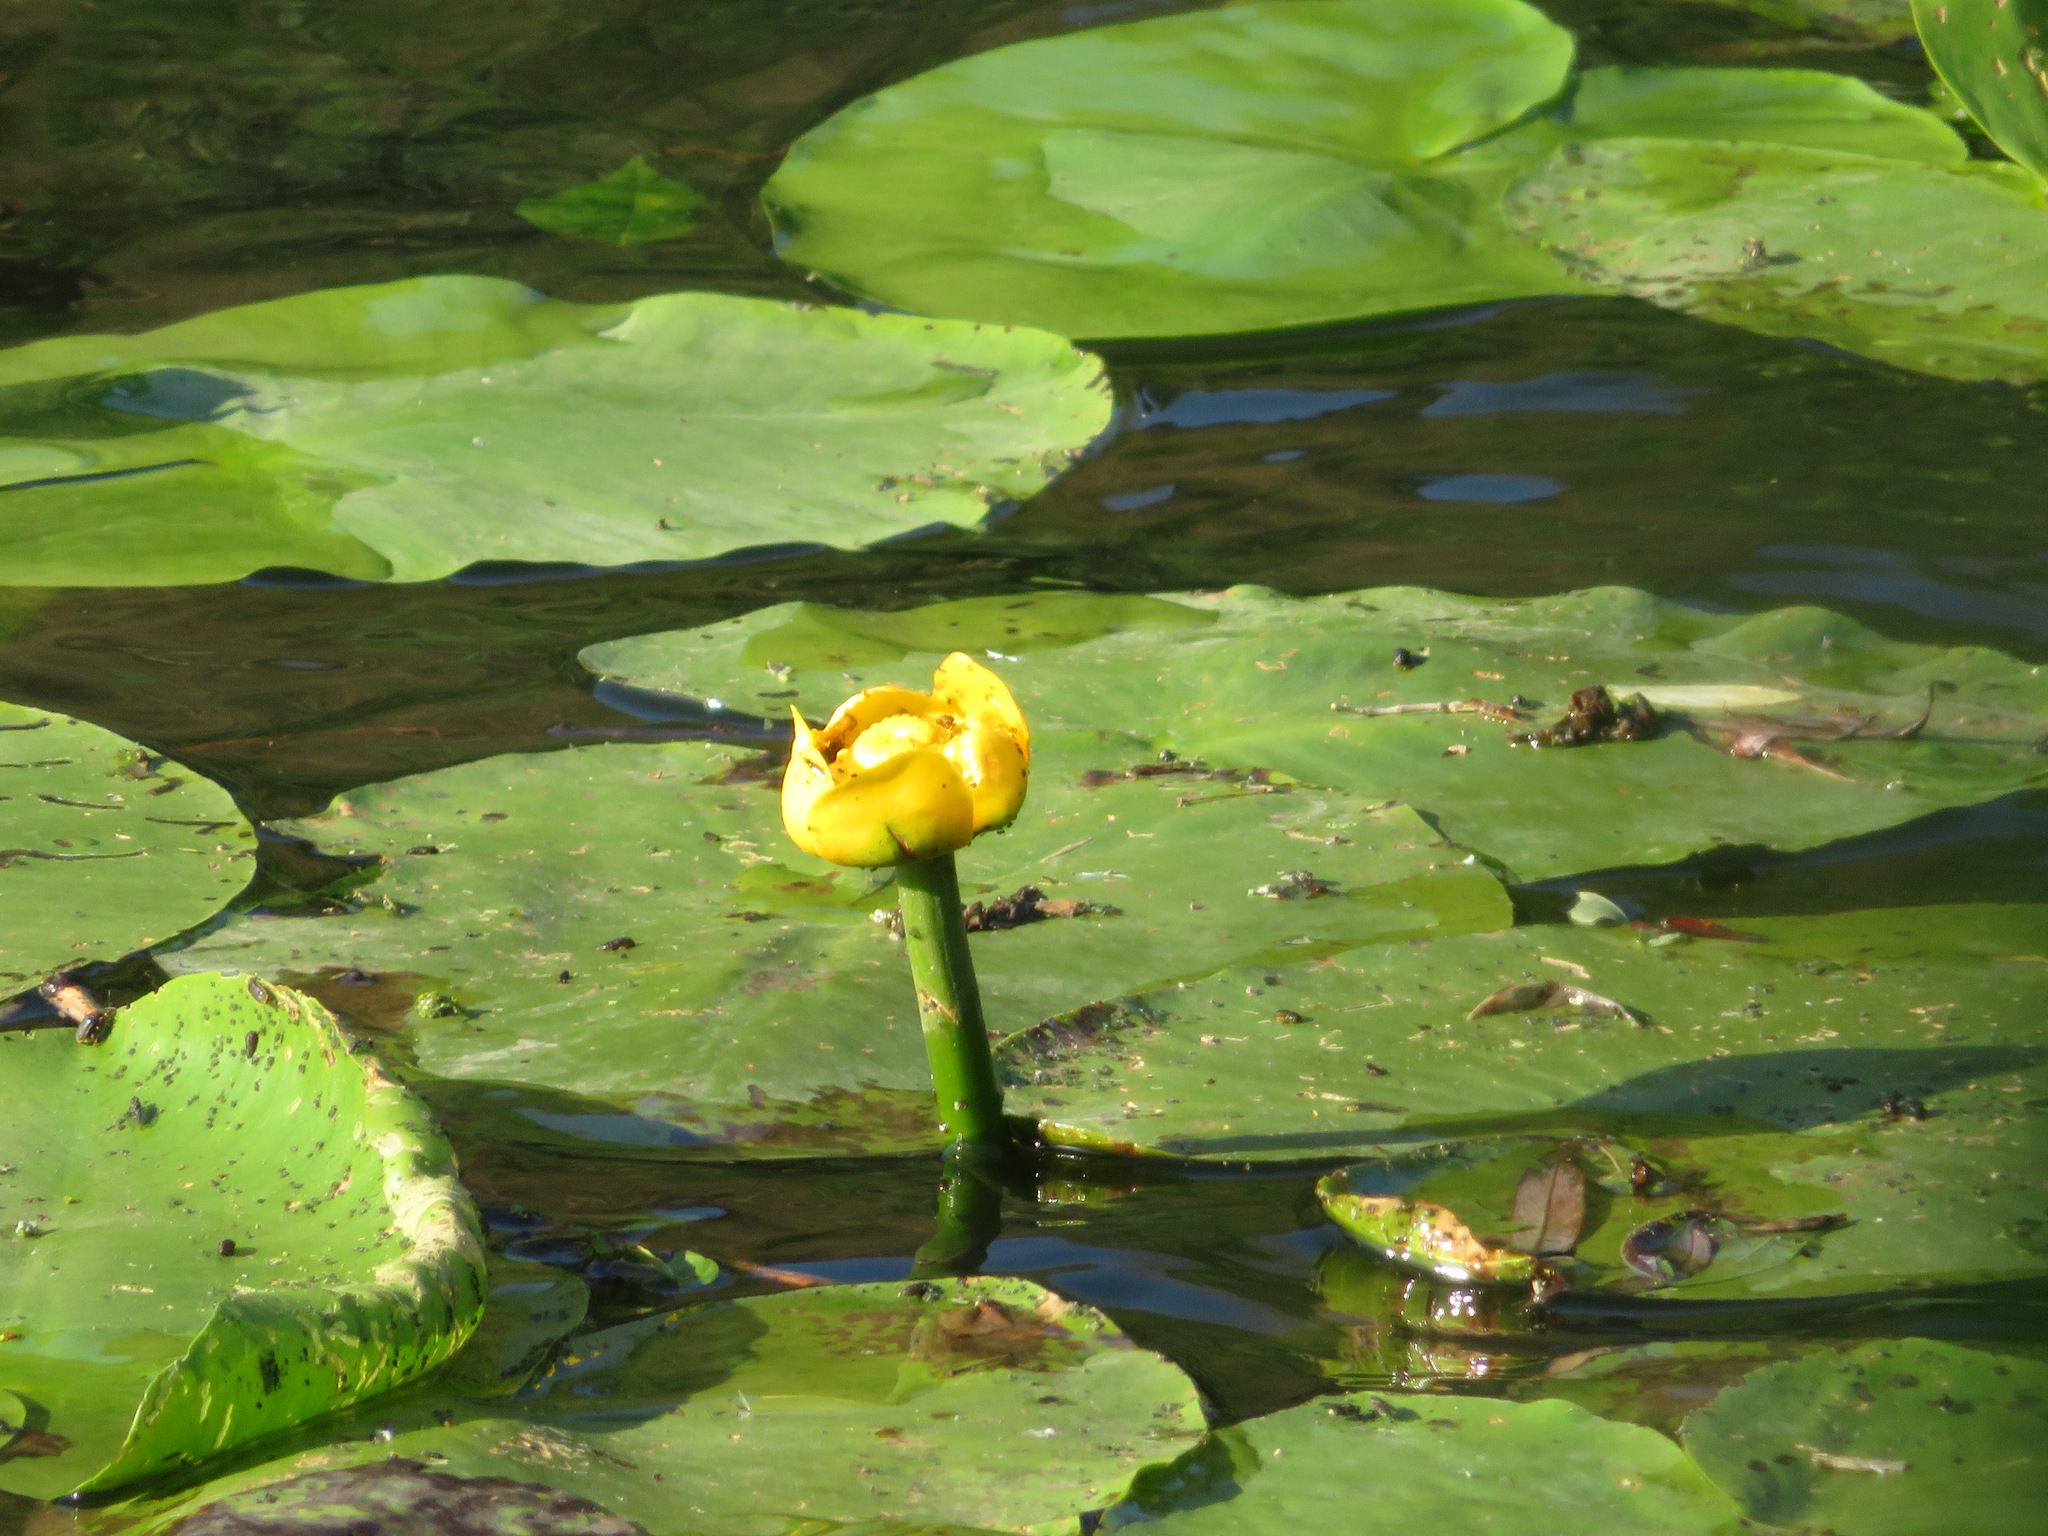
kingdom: Plantae
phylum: Tracheophyta
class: Magnoliopsida
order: Nymphaeales
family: Nymphaeaceae
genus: Nuphar
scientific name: Nuphar lutea
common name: Yellow water-lily
